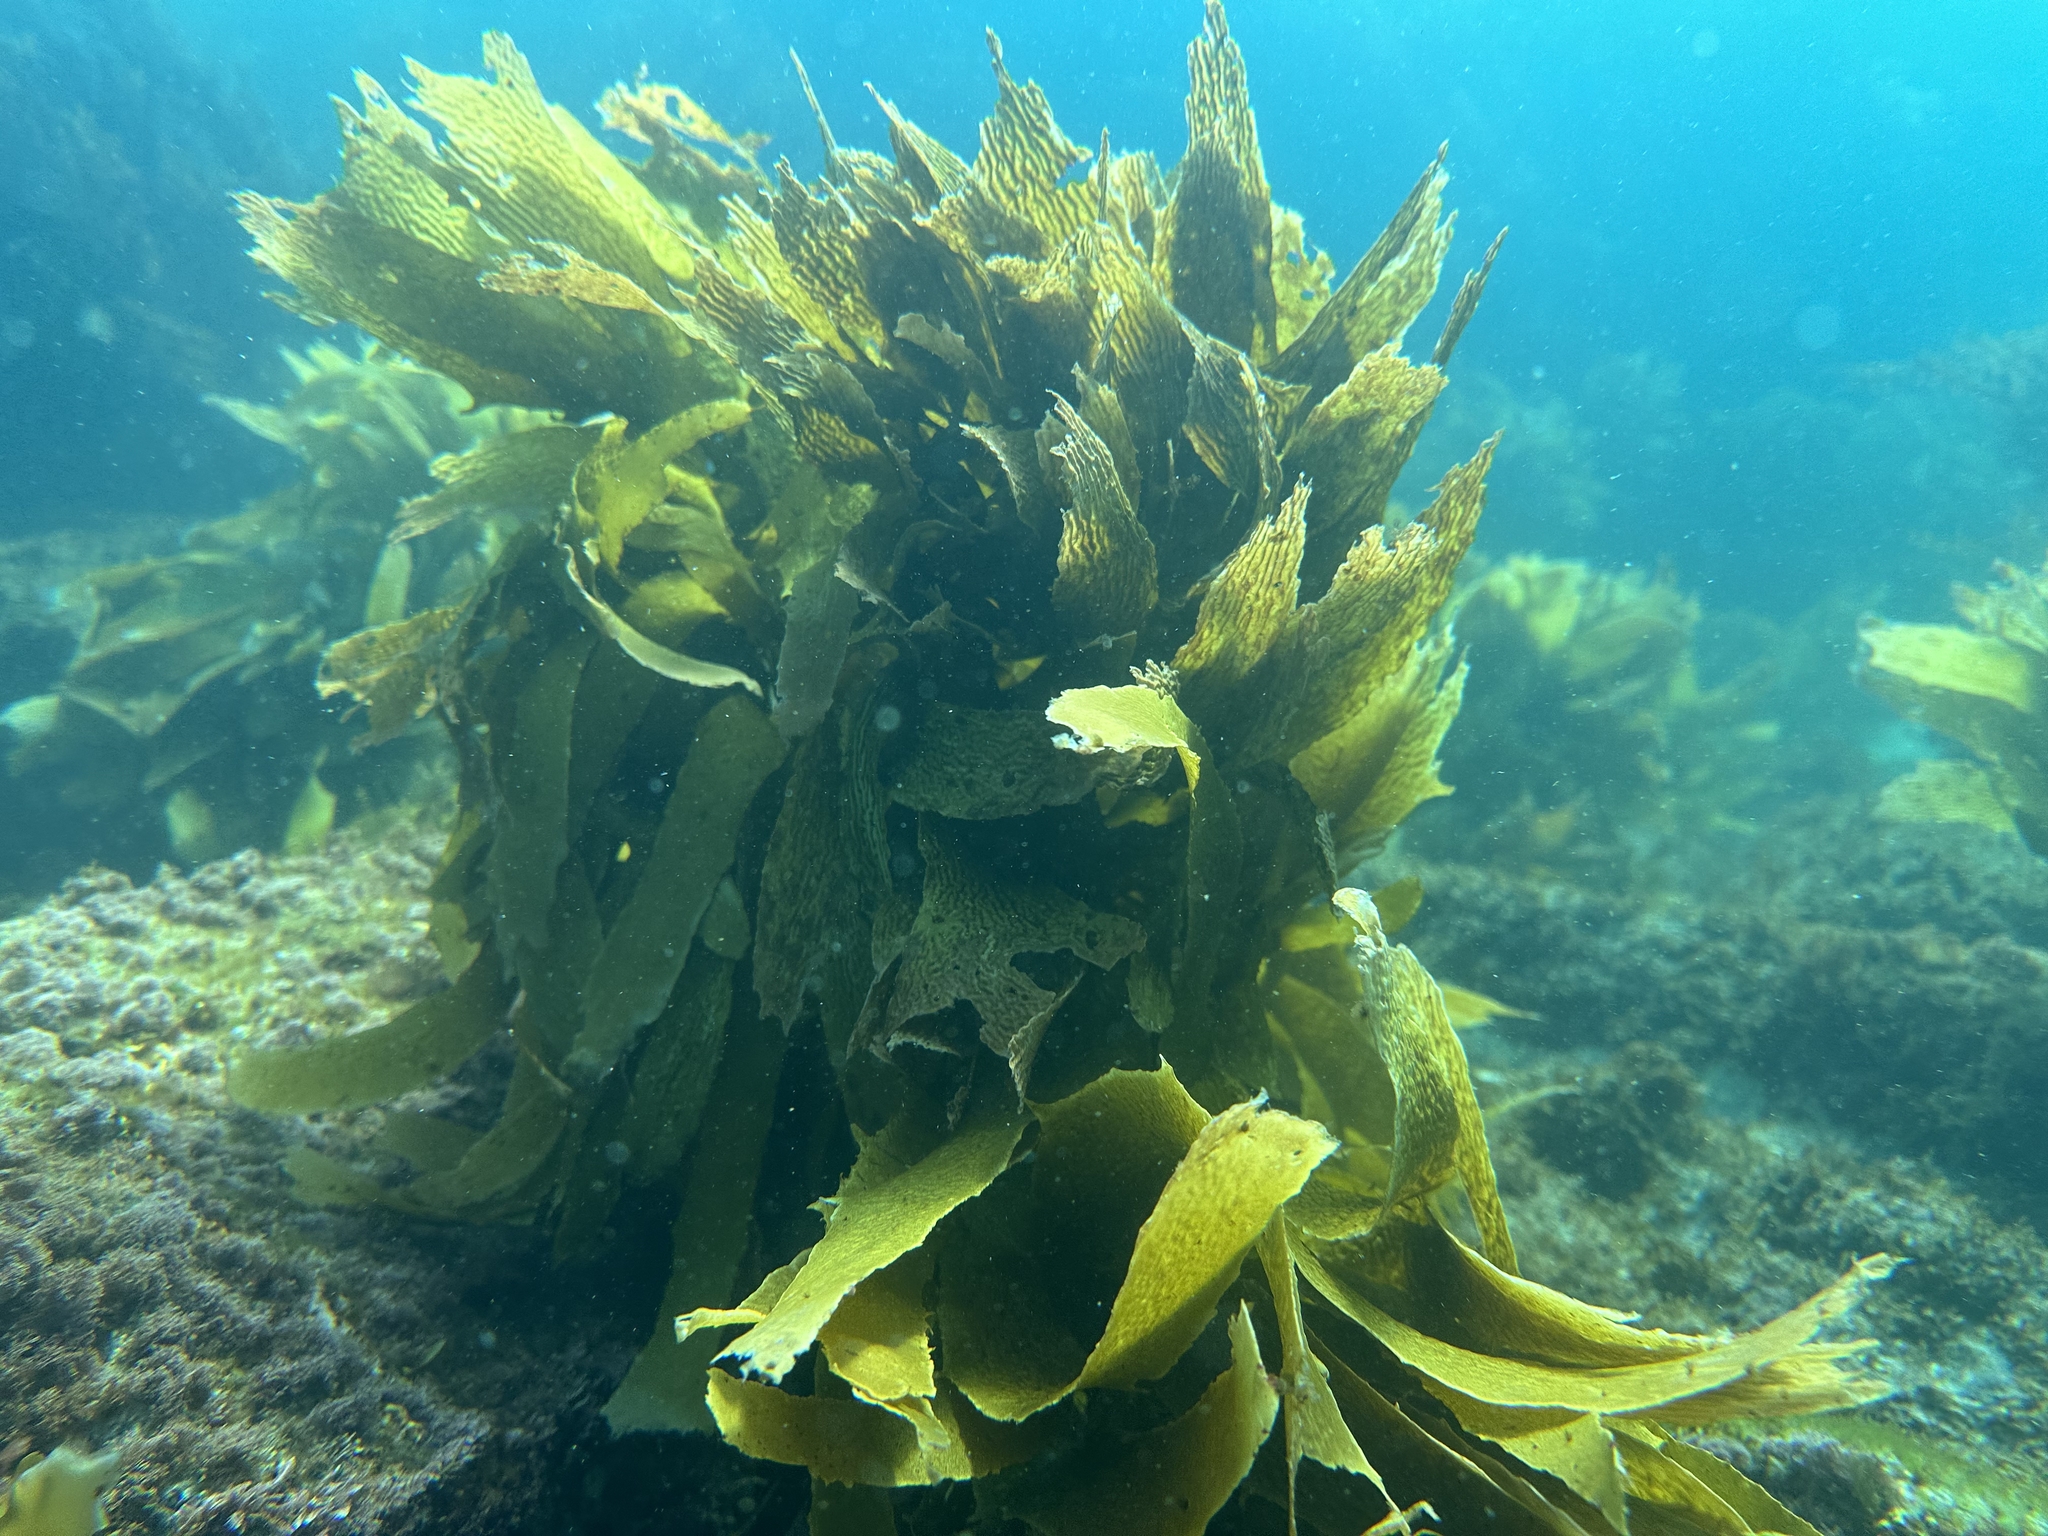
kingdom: Chromista
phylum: Ochrophyta
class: Phaeophyceae
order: Laminariales
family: Lessoniaceae
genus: Ecklonia
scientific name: Ecklonia radiata
